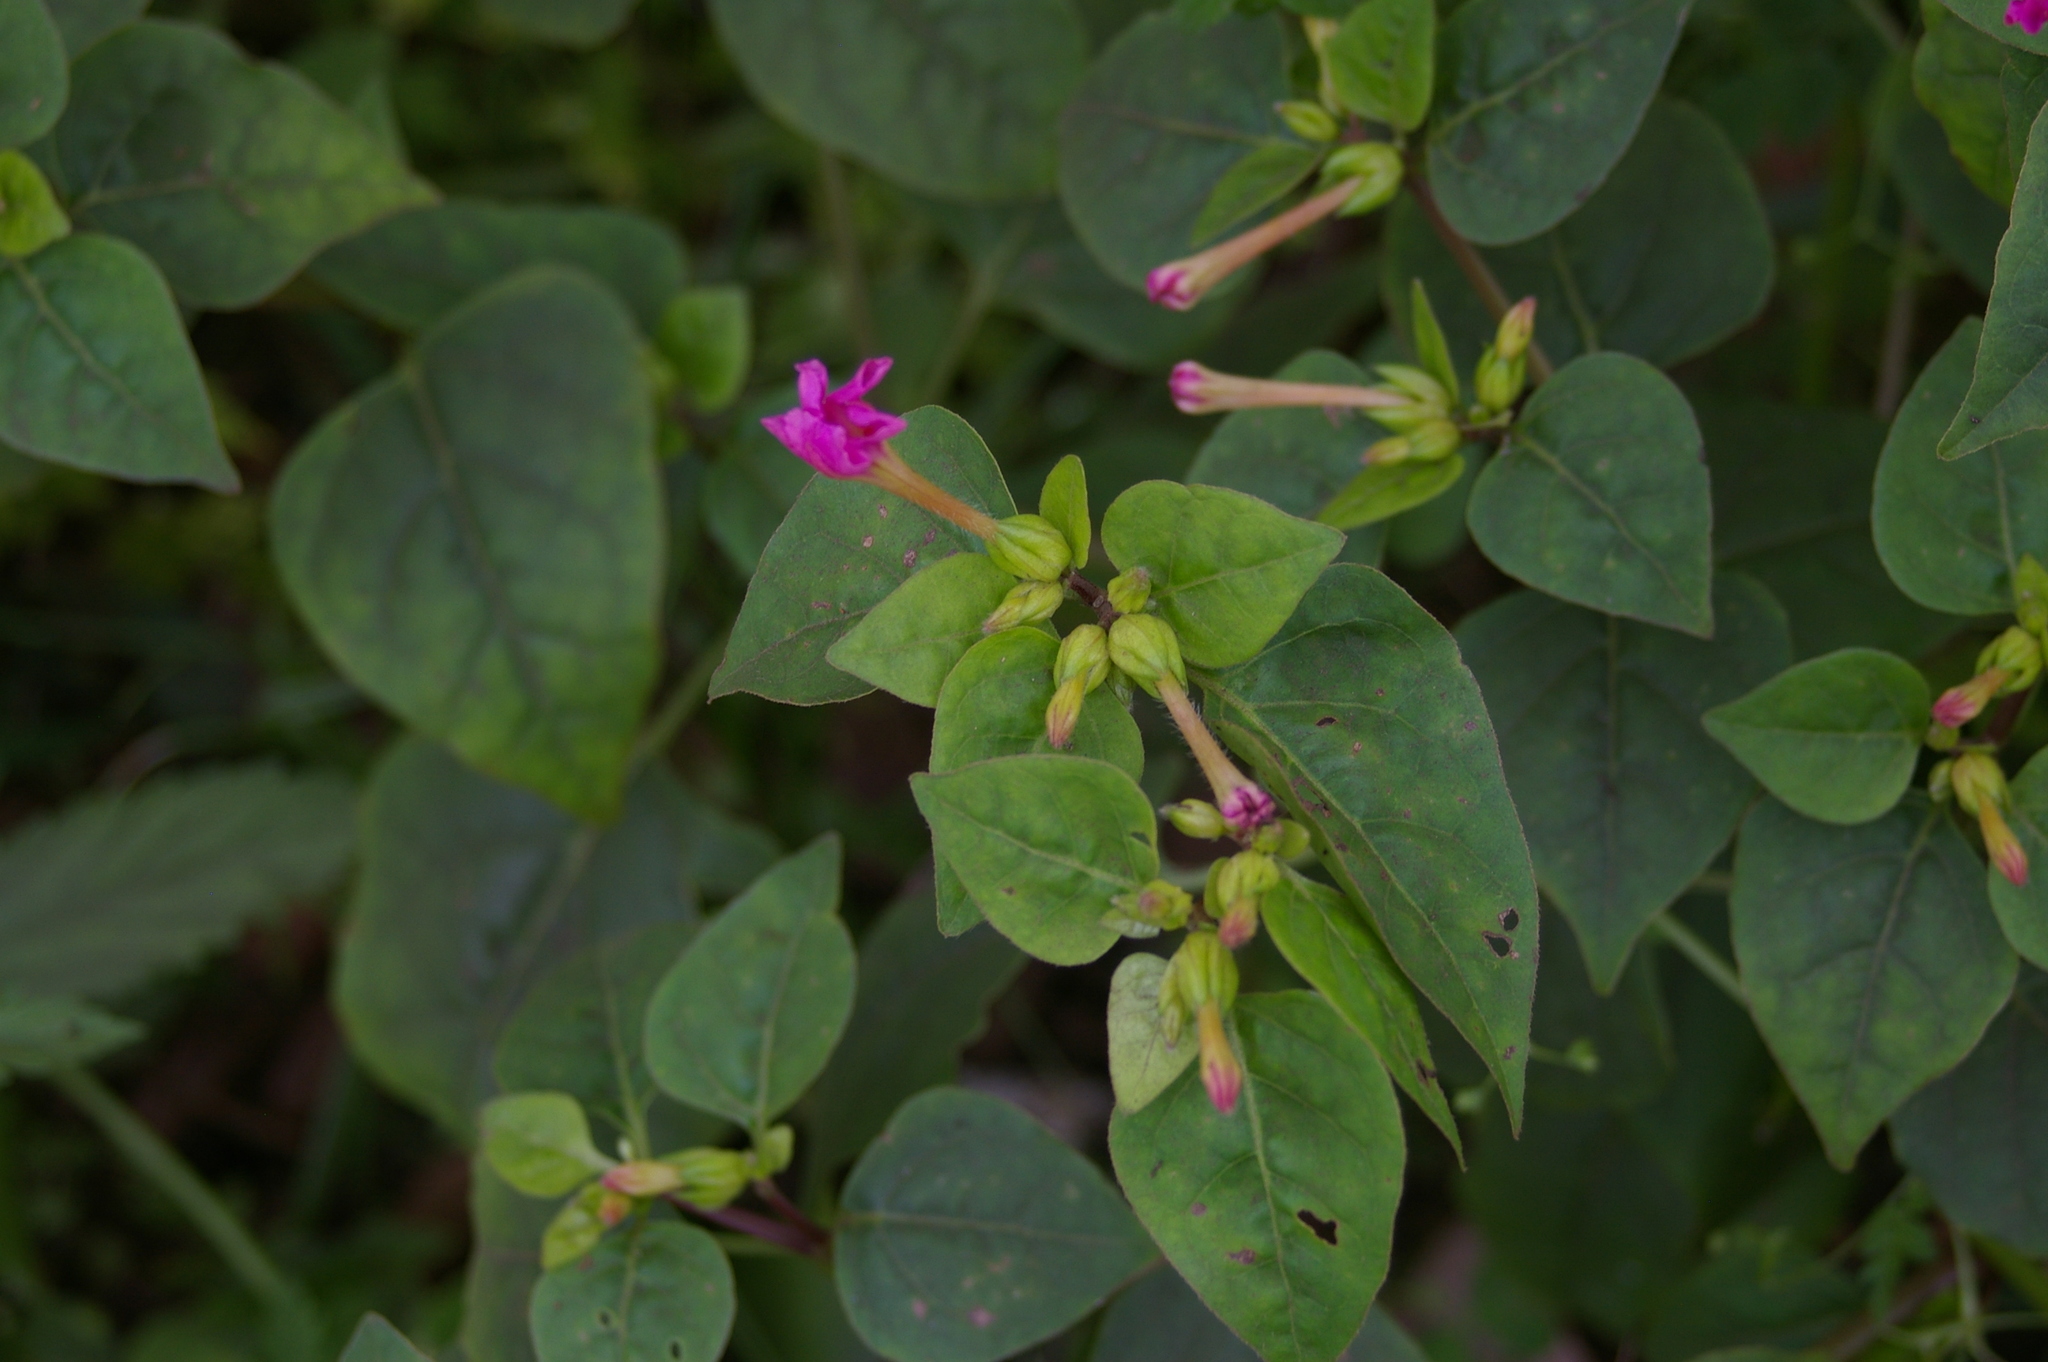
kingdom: Plantae
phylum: Tracheophyta
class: Magnoliopsida
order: Caryophyllales
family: Nyctaginaceae
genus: Mirabilis
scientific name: Mirabilis jalapa
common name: Marvel-of-peru
